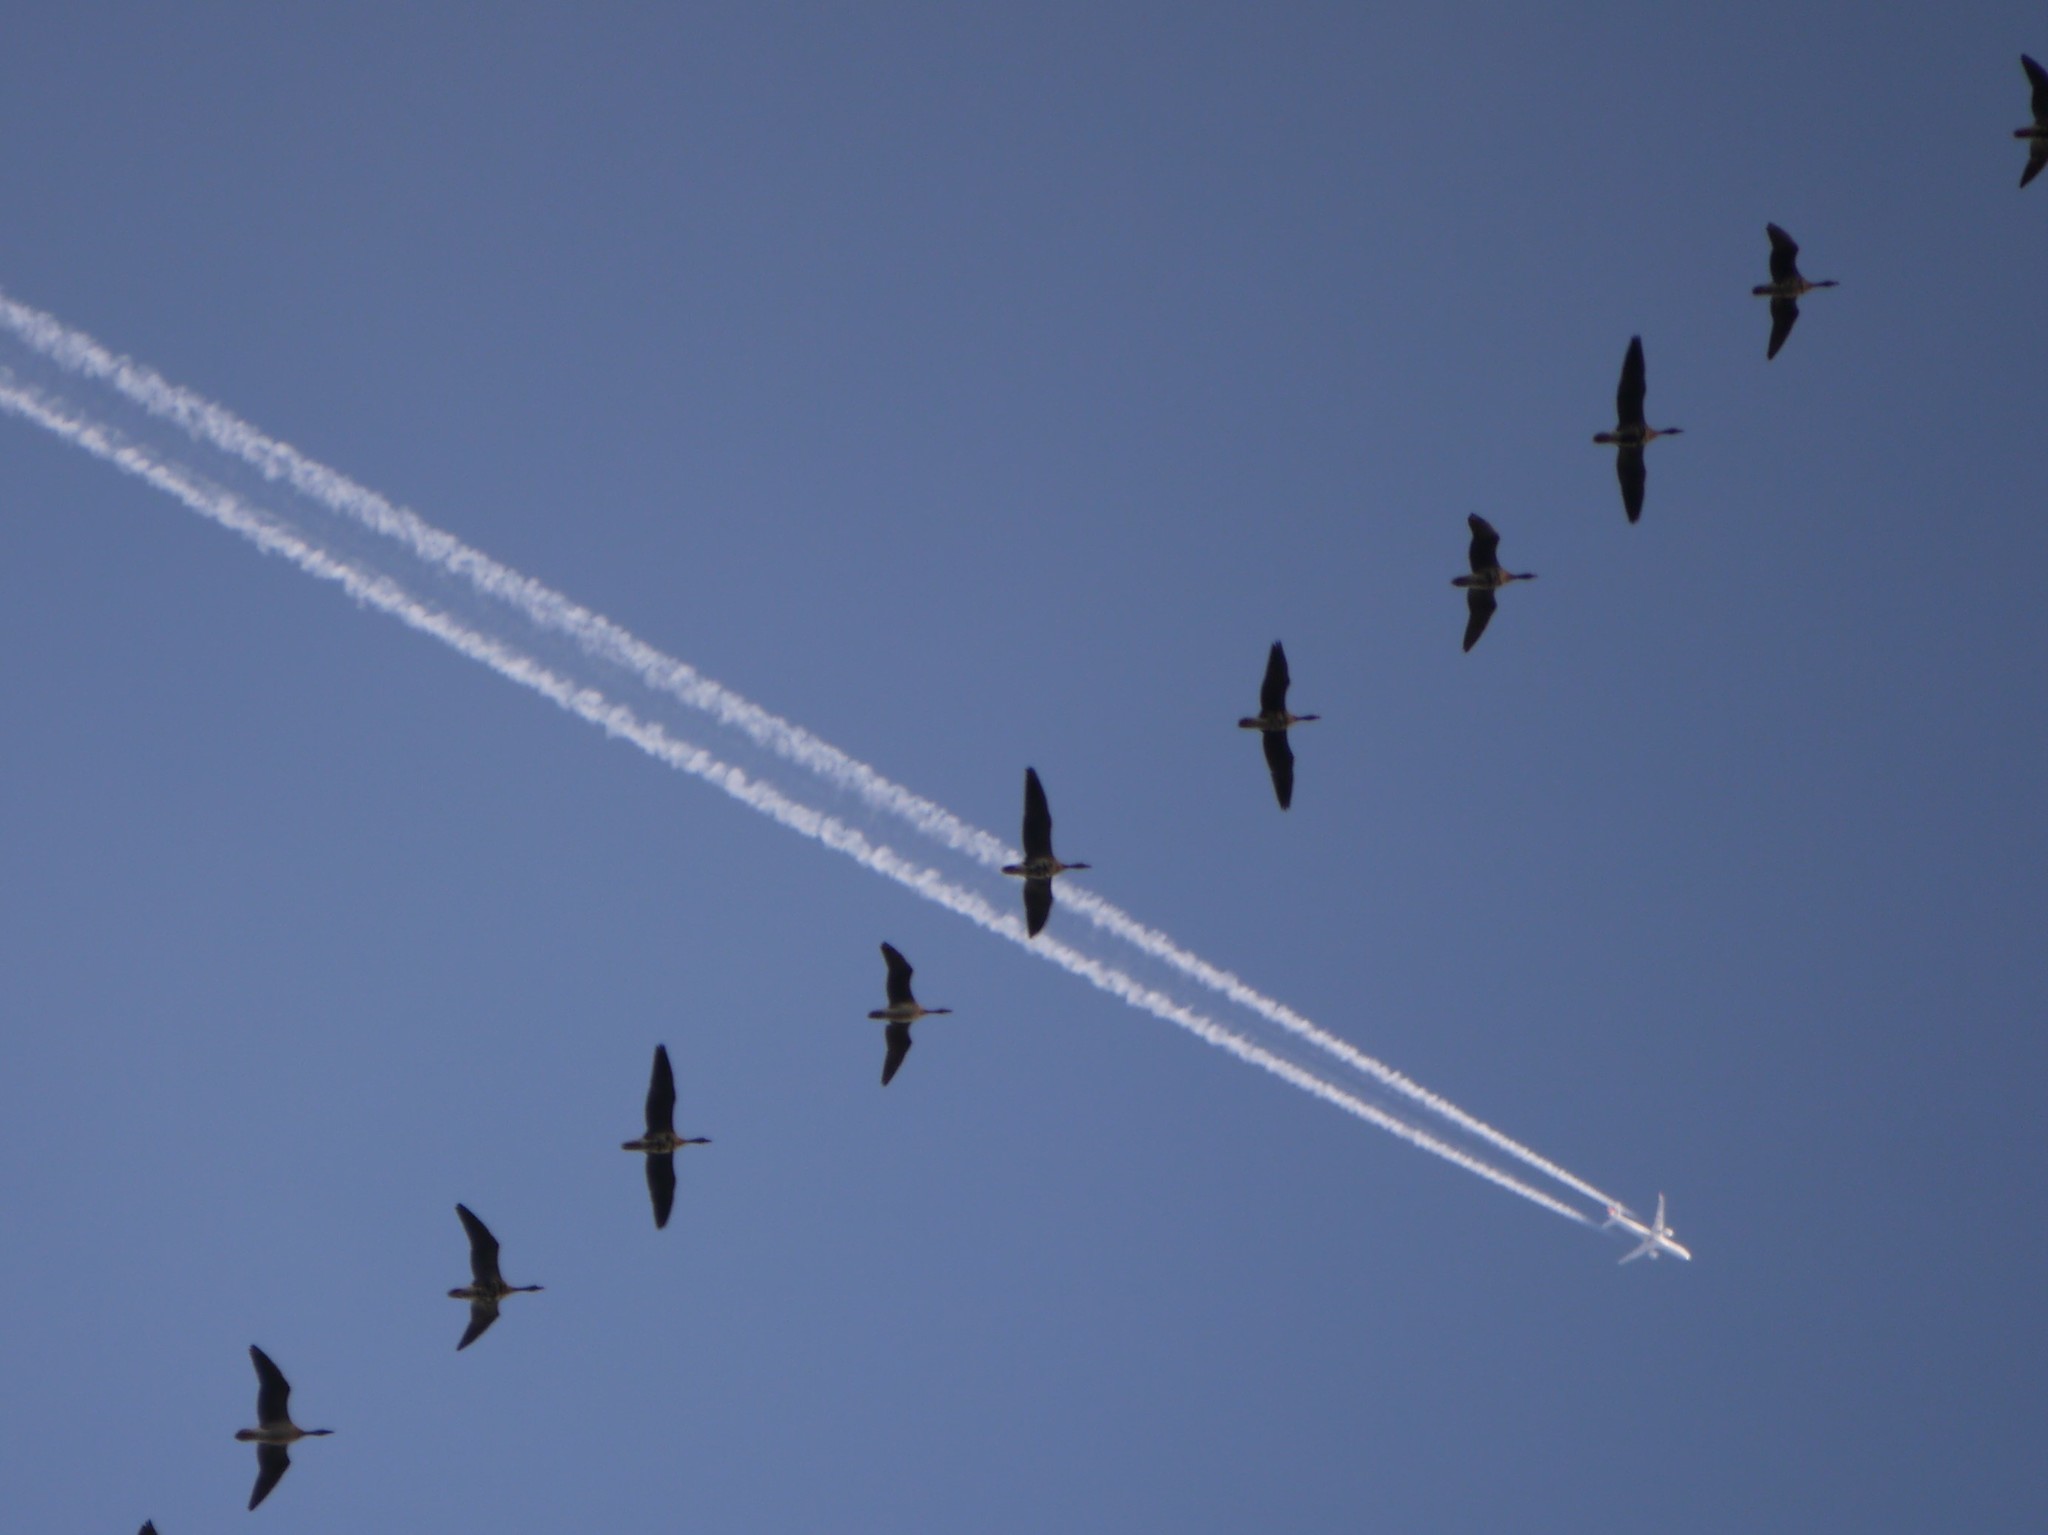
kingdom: Animalia
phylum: Chordata
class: Aves
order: Anseriformes
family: Anatidae
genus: Anser
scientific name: Anser albifrons
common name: Greater white-fronted goose
